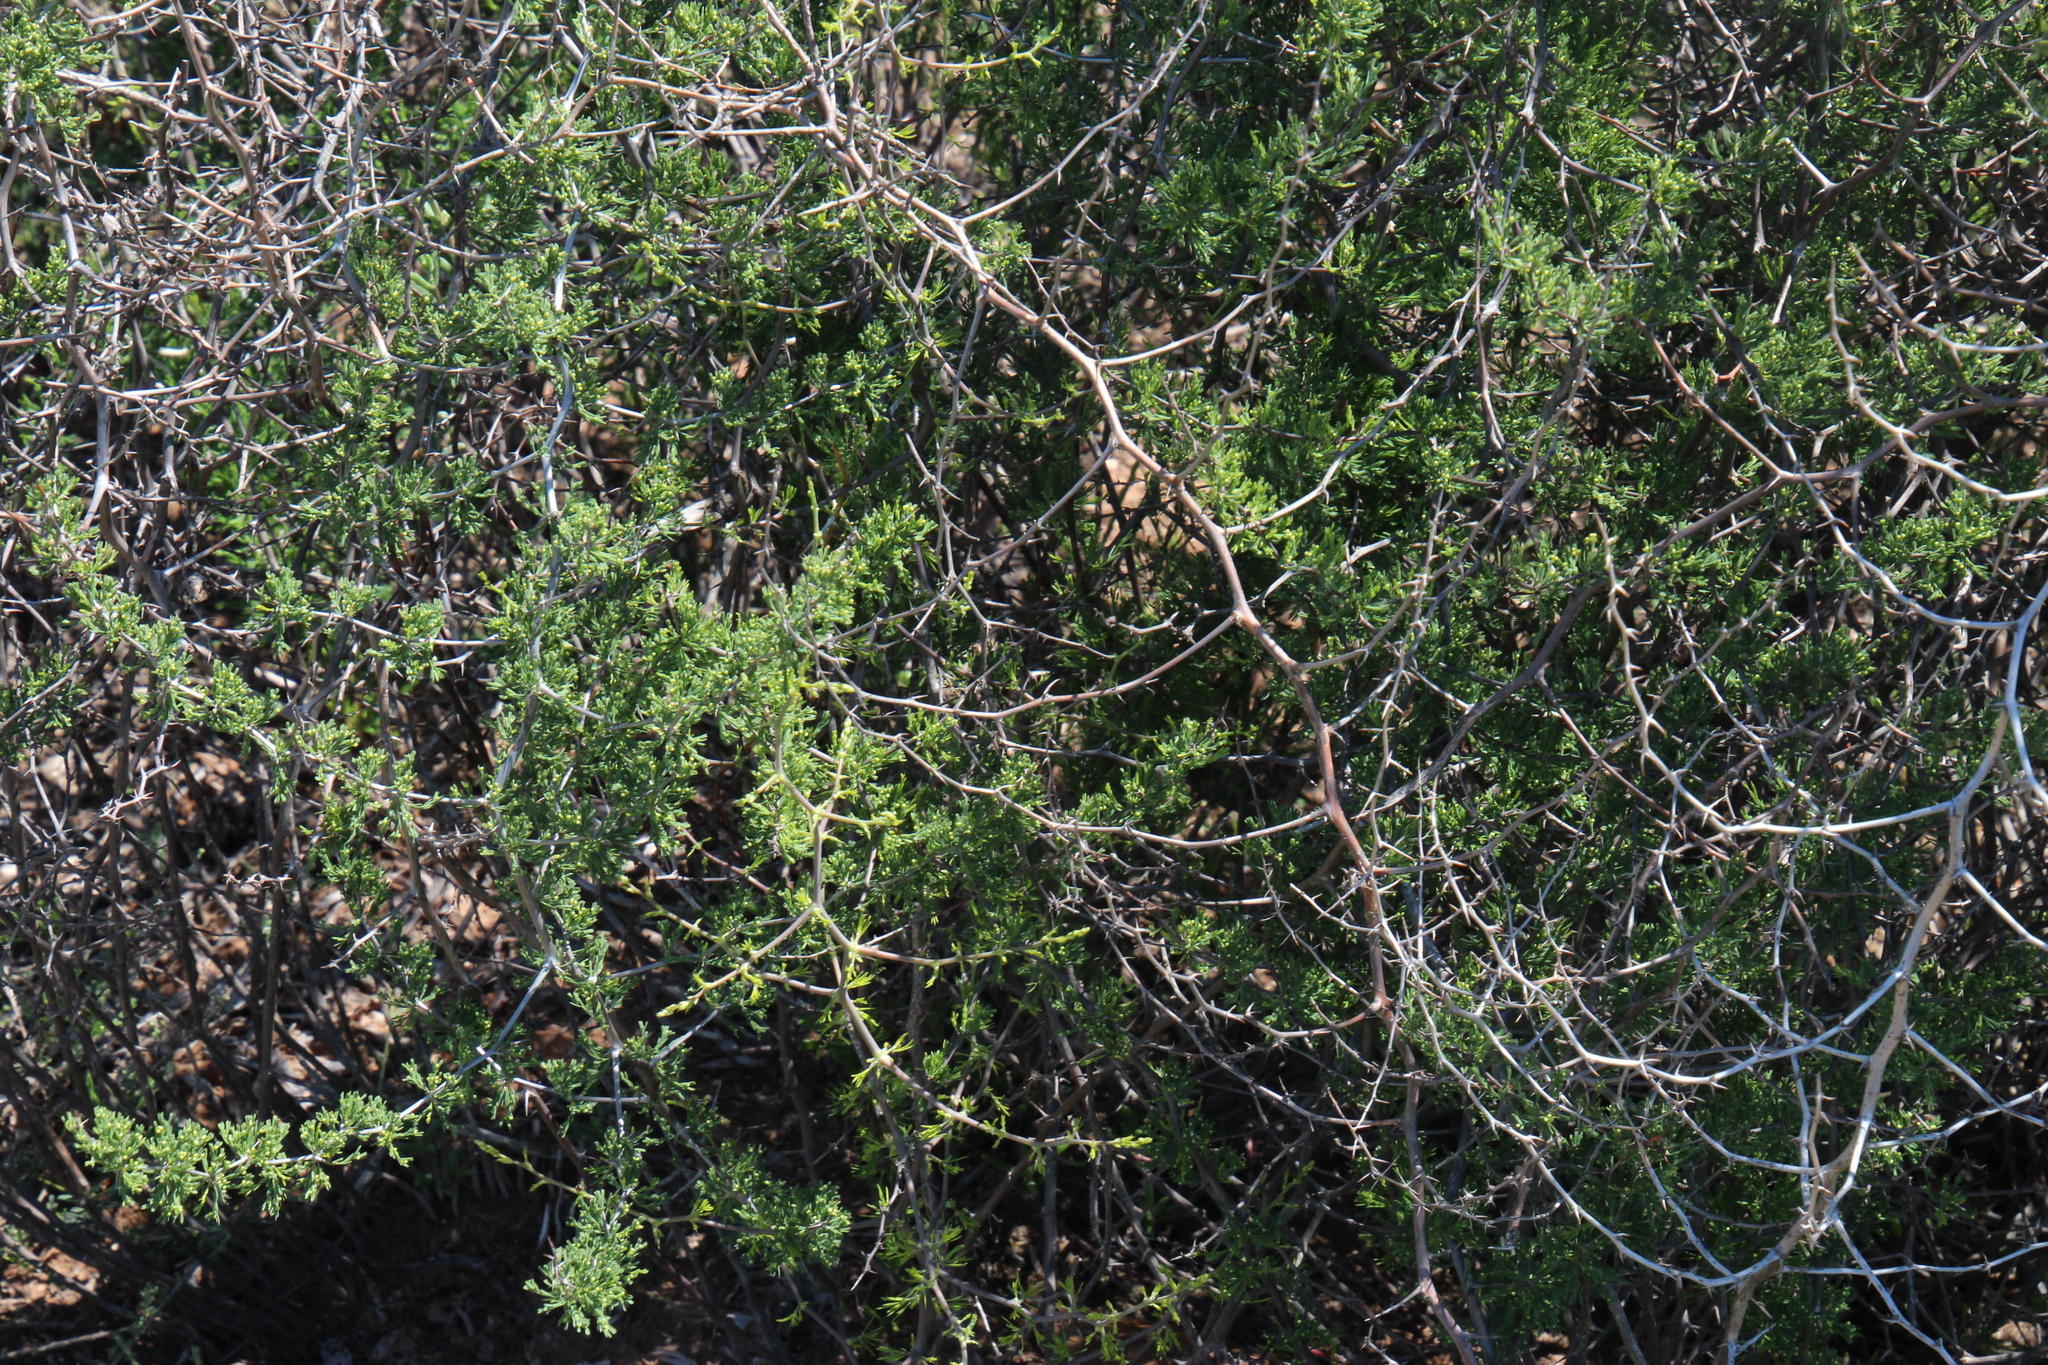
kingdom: Plantae
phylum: Tracheophyta
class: Liliopsida
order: Asparagales
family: Asparagaceae
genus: Asparagus
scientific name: Asparagus burchellii
